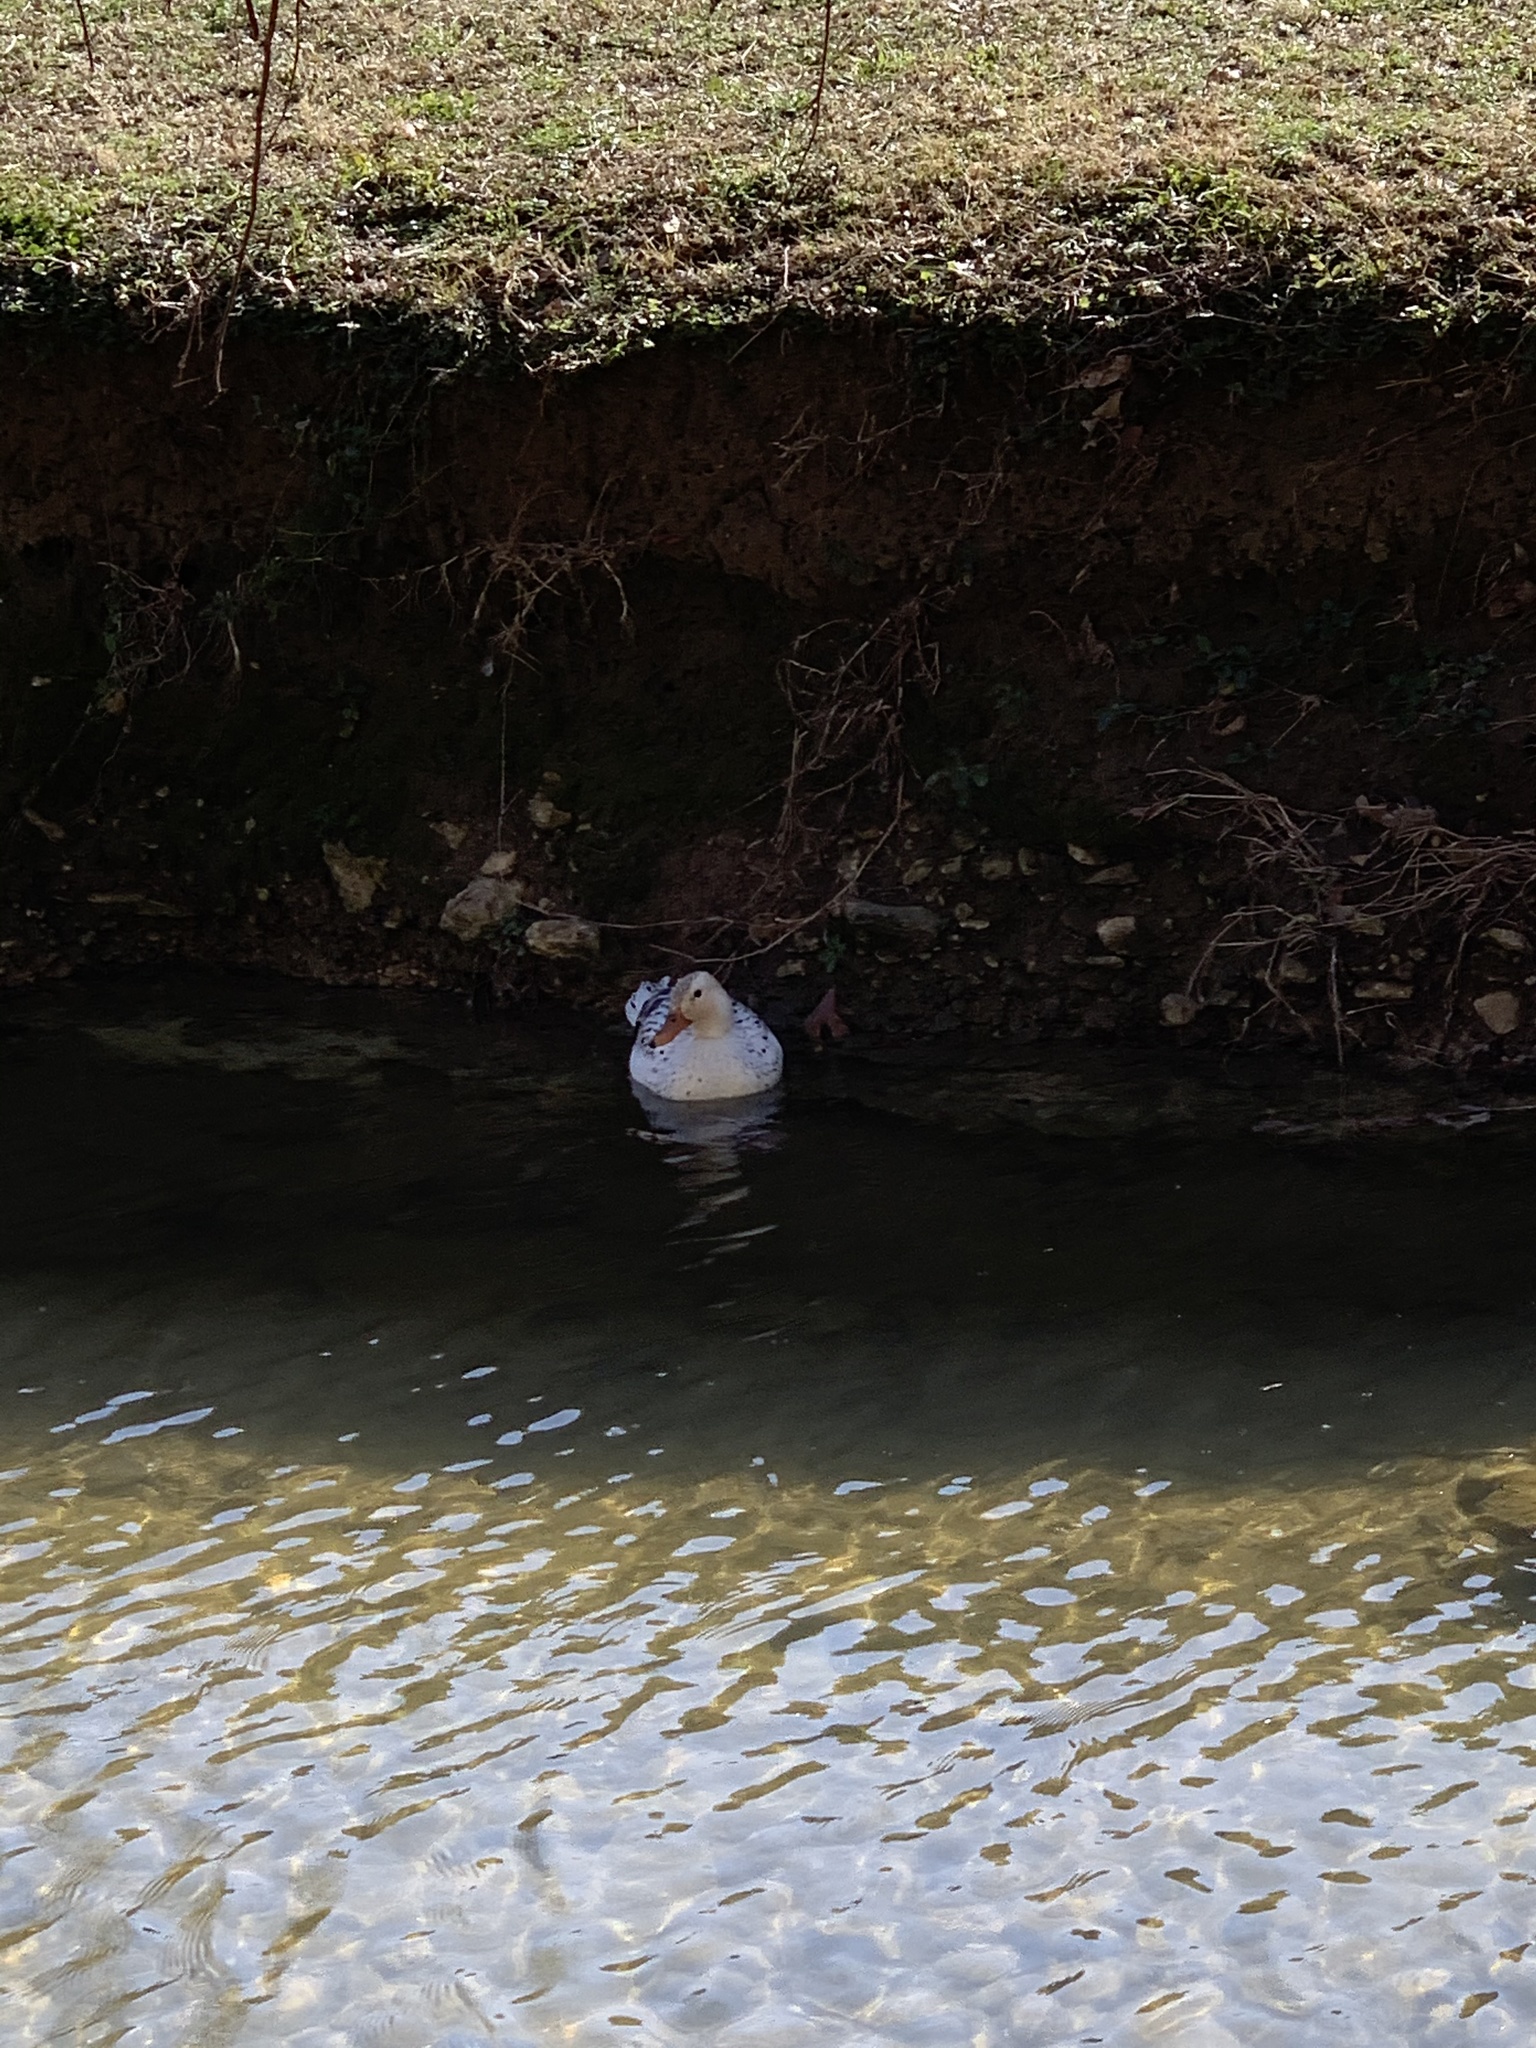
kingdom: Animalia
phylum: Chordata
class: Aves
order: Anseriformes
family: Anatidae
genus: Anas
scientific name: Anas platyrhynchos
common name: Mallard
